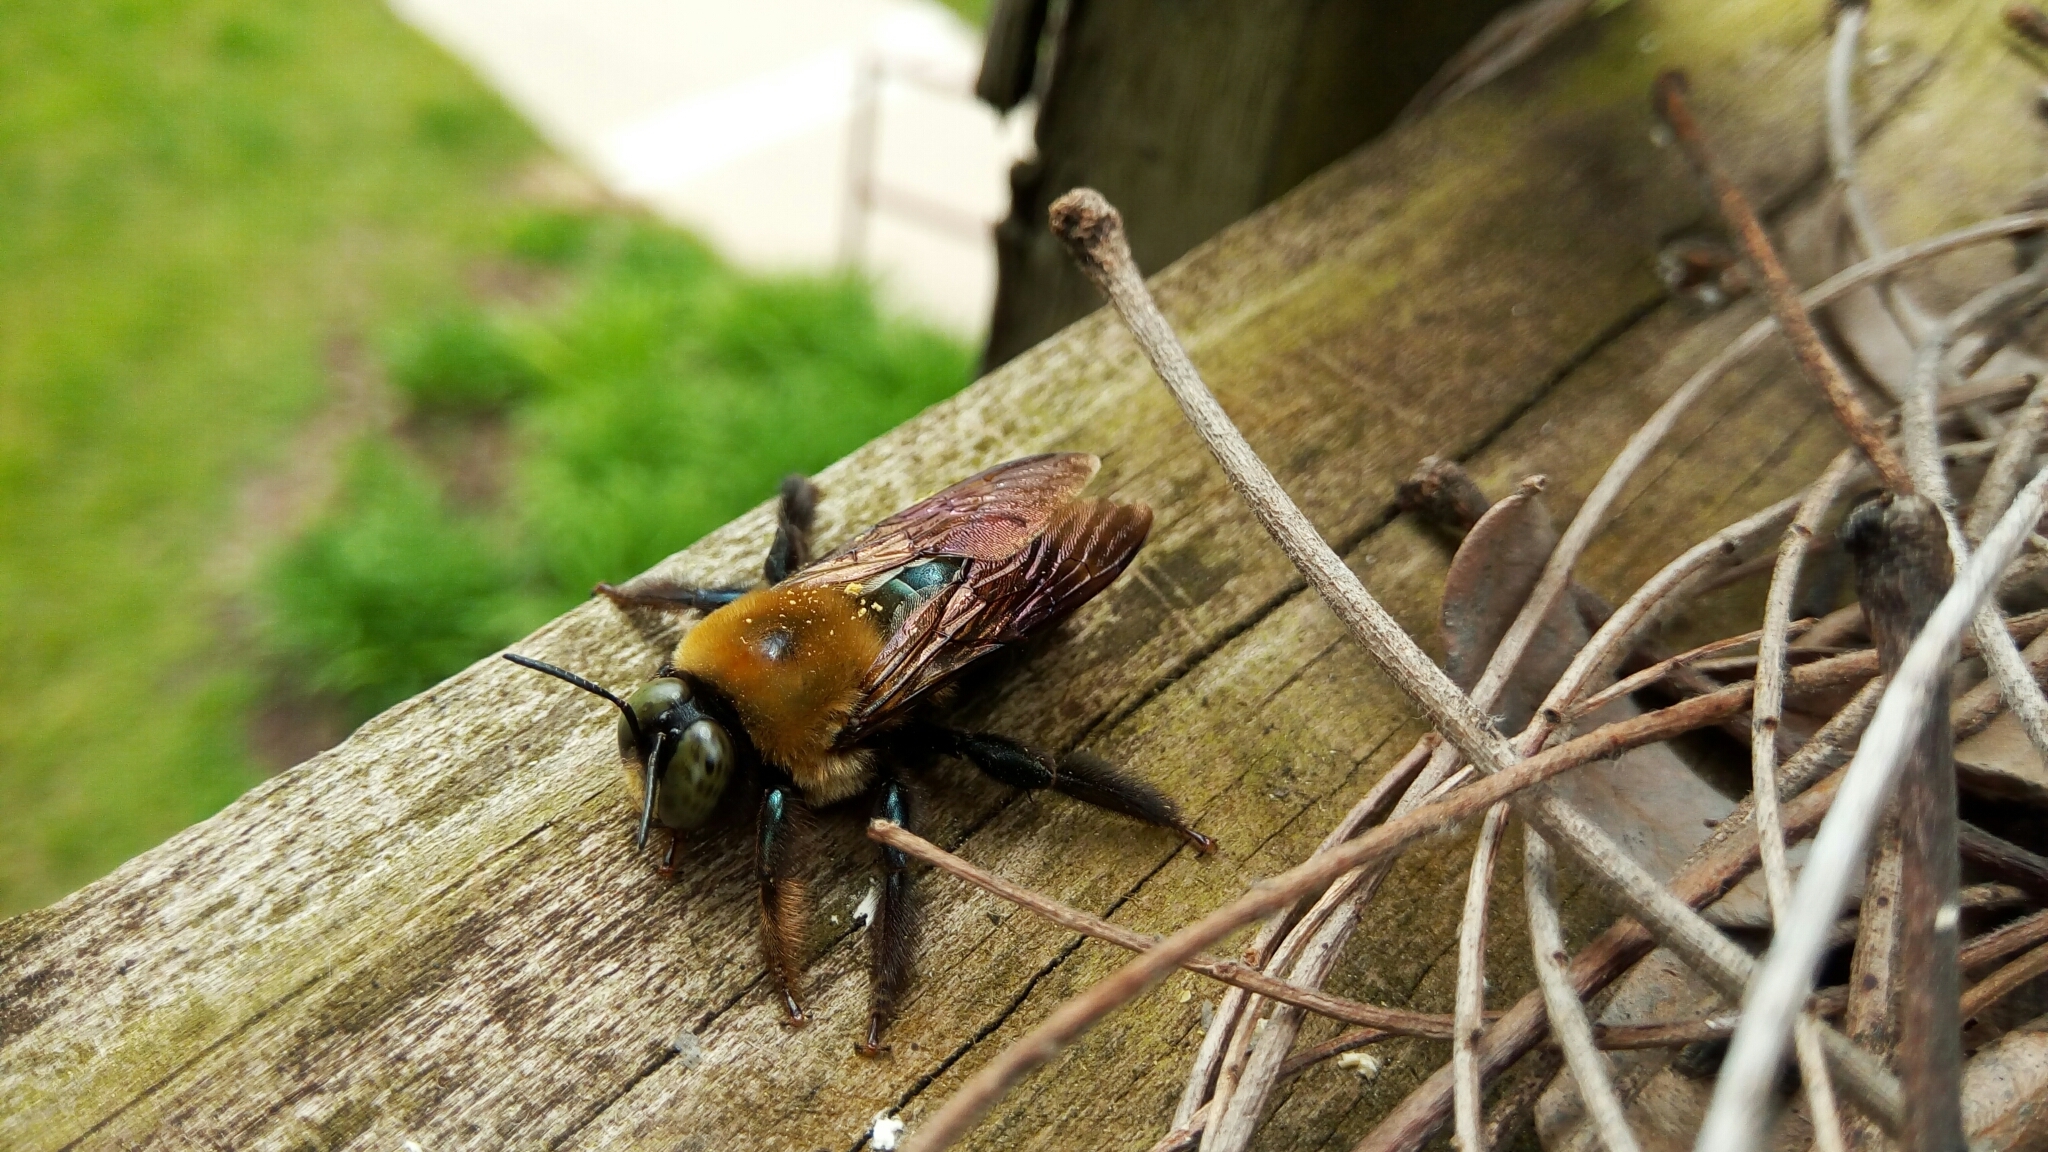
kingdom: Animalia
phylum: Arthropoda
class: Insecta
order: Hymenoptera
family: Apidae
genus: Xylocopa
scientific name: Xylocopa virginica
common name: Carpenter bee
